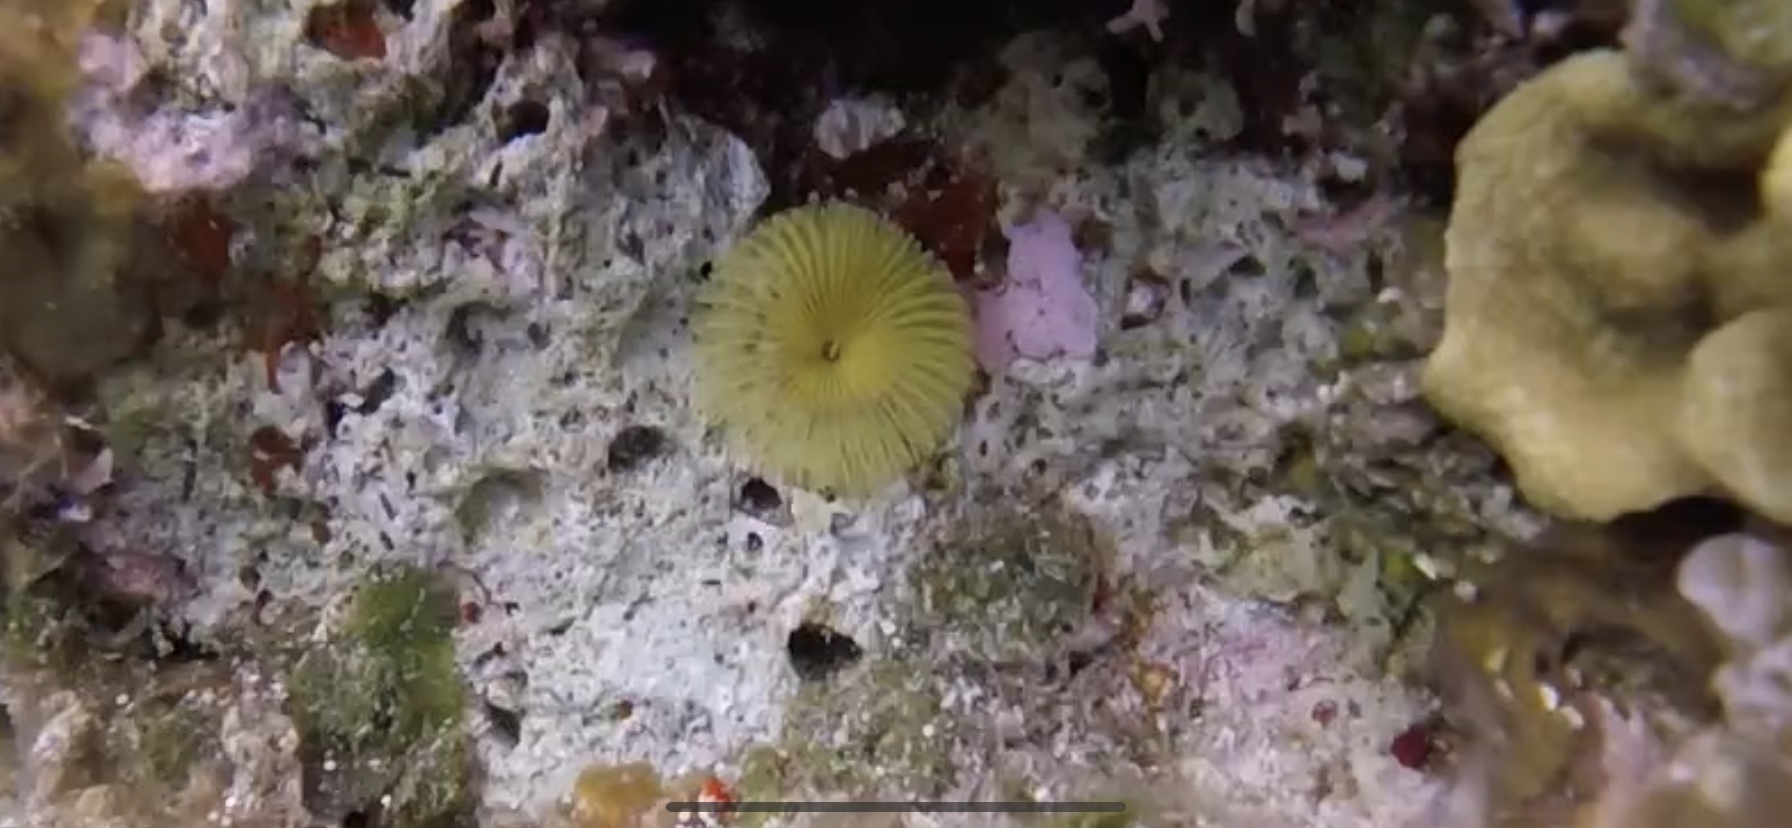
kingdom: Animalia
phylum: Annelida
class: Polychaeta
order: Sabellida
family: Sabellidae
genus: Notaulax
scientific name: Notaulax occidentalis
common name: Yellow fanworm
